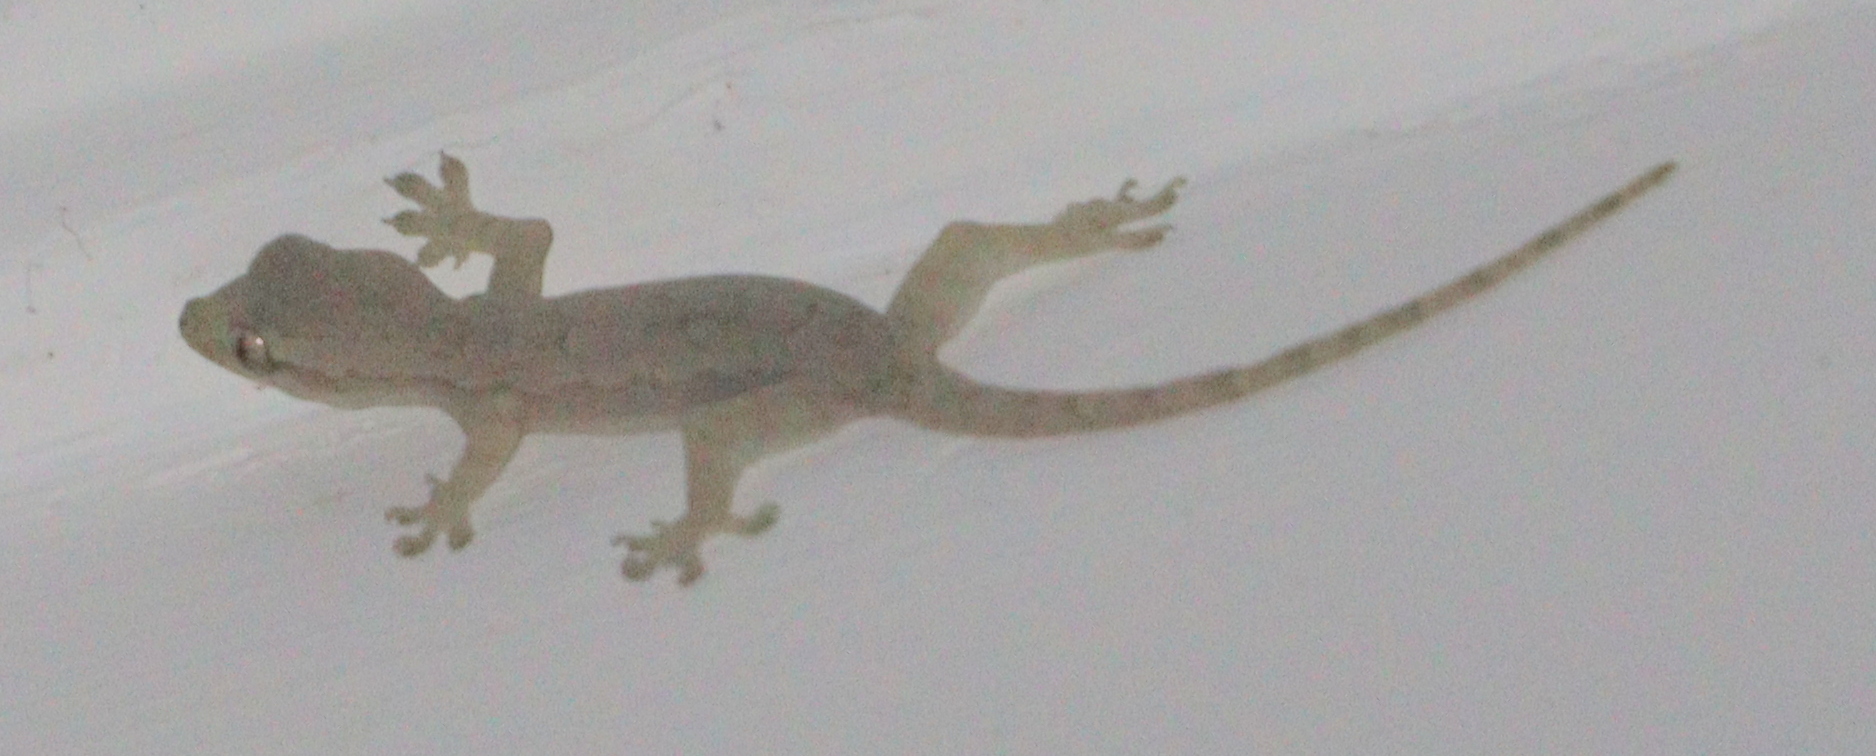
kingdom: Animalia
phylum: Chordata
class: Squamata
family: Gekkonidae
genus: Hemidactylus
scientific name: Hemidactylus platyurus
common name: Flat-tailed house gecko
